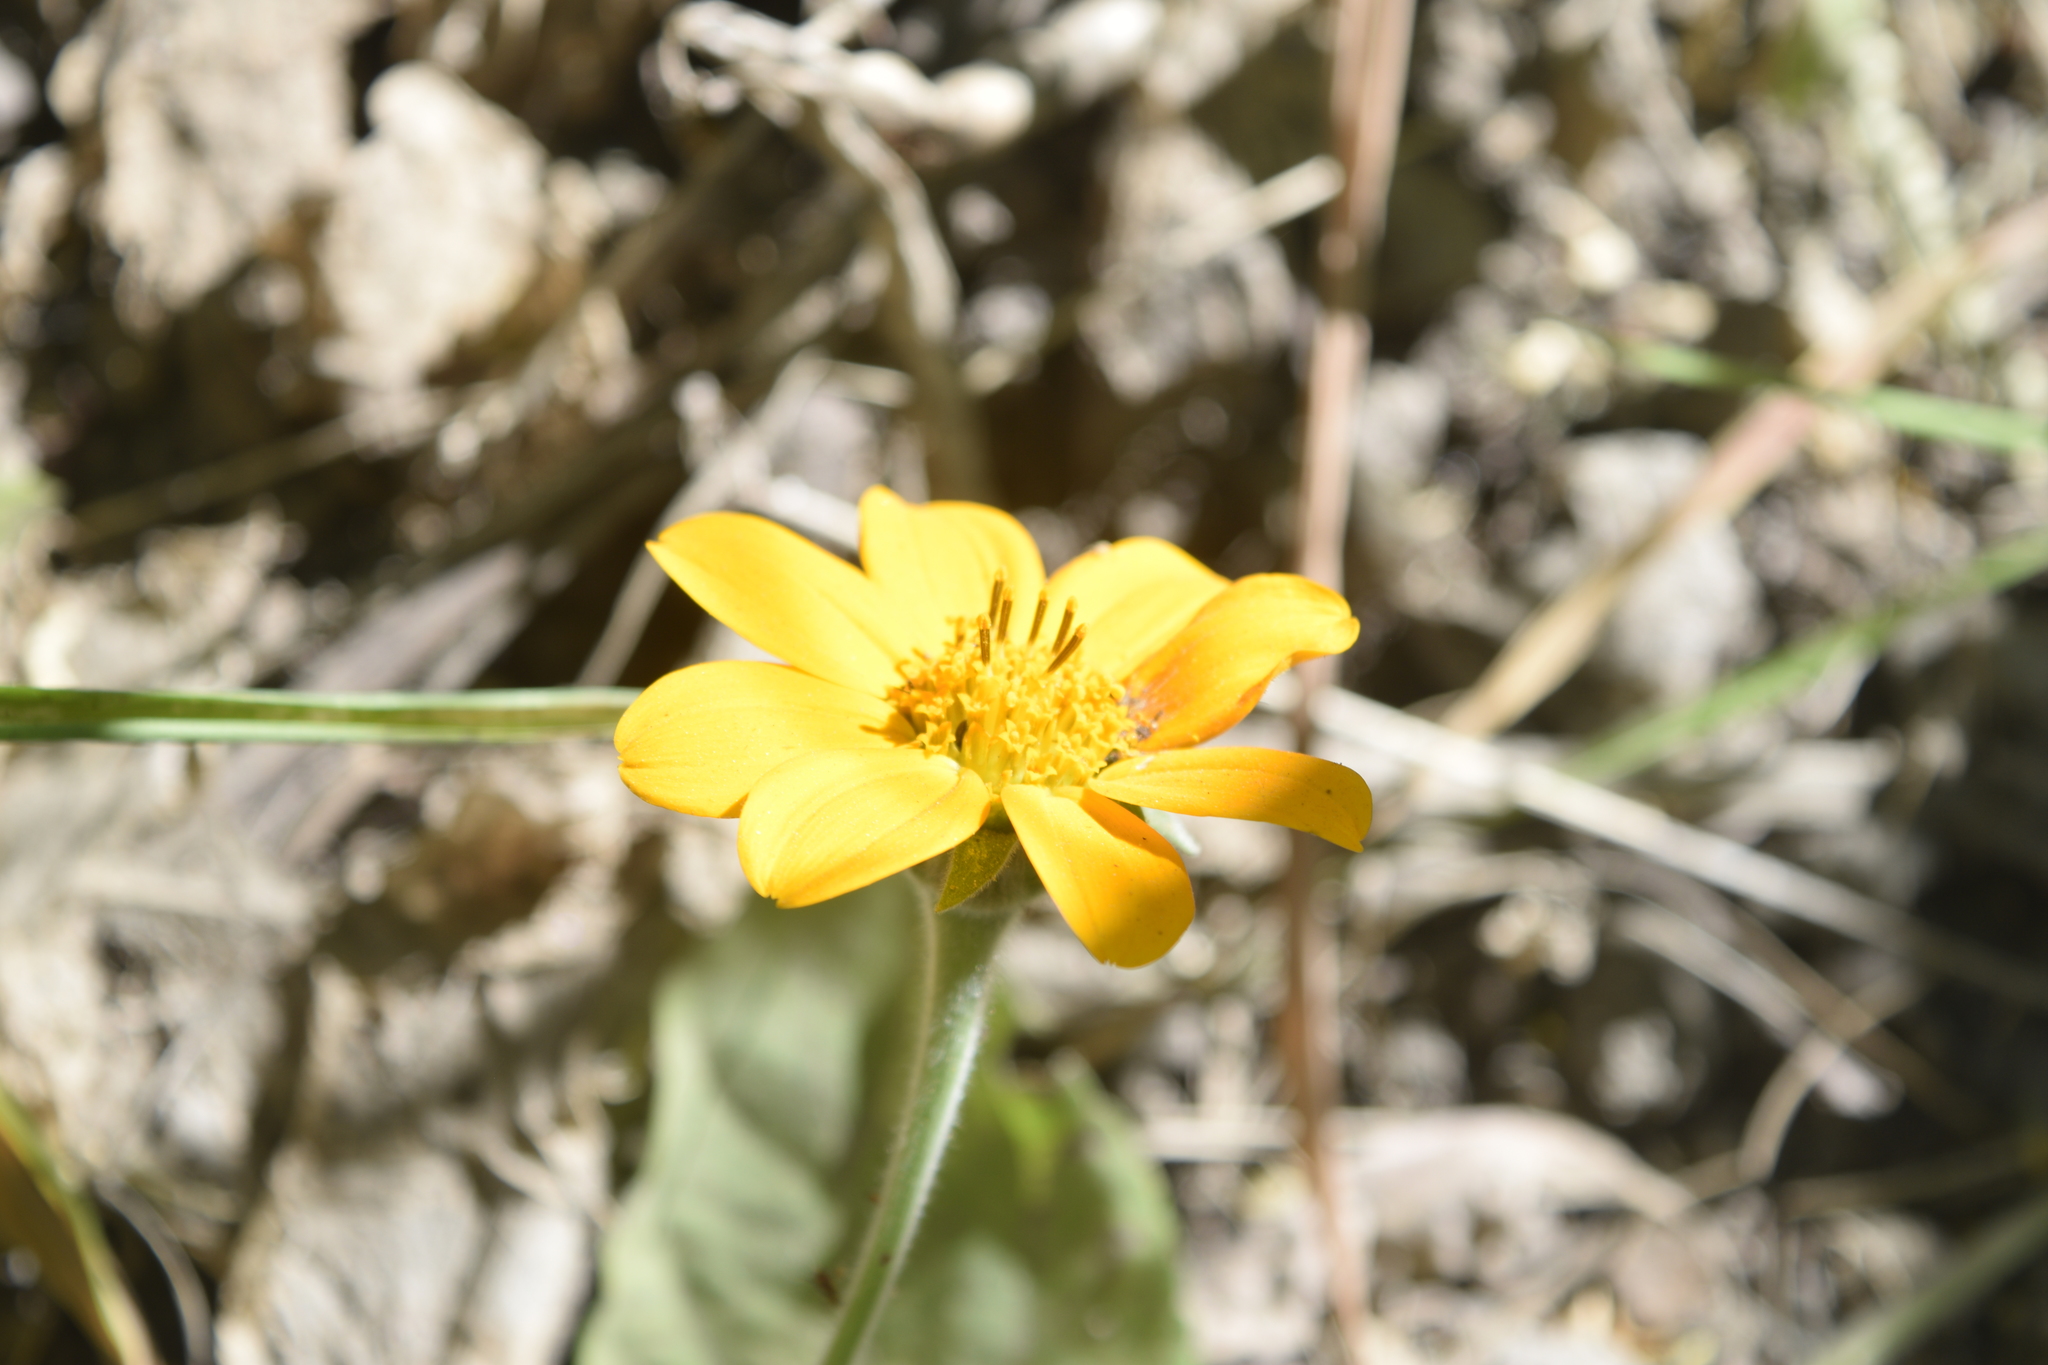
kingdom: Plantae
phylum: Tracheophyta
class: Magnoliopsida
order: Asterales
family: Asteraceae
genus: Tithonia
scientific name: Tithonia rotundifolia
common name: Sunflower
